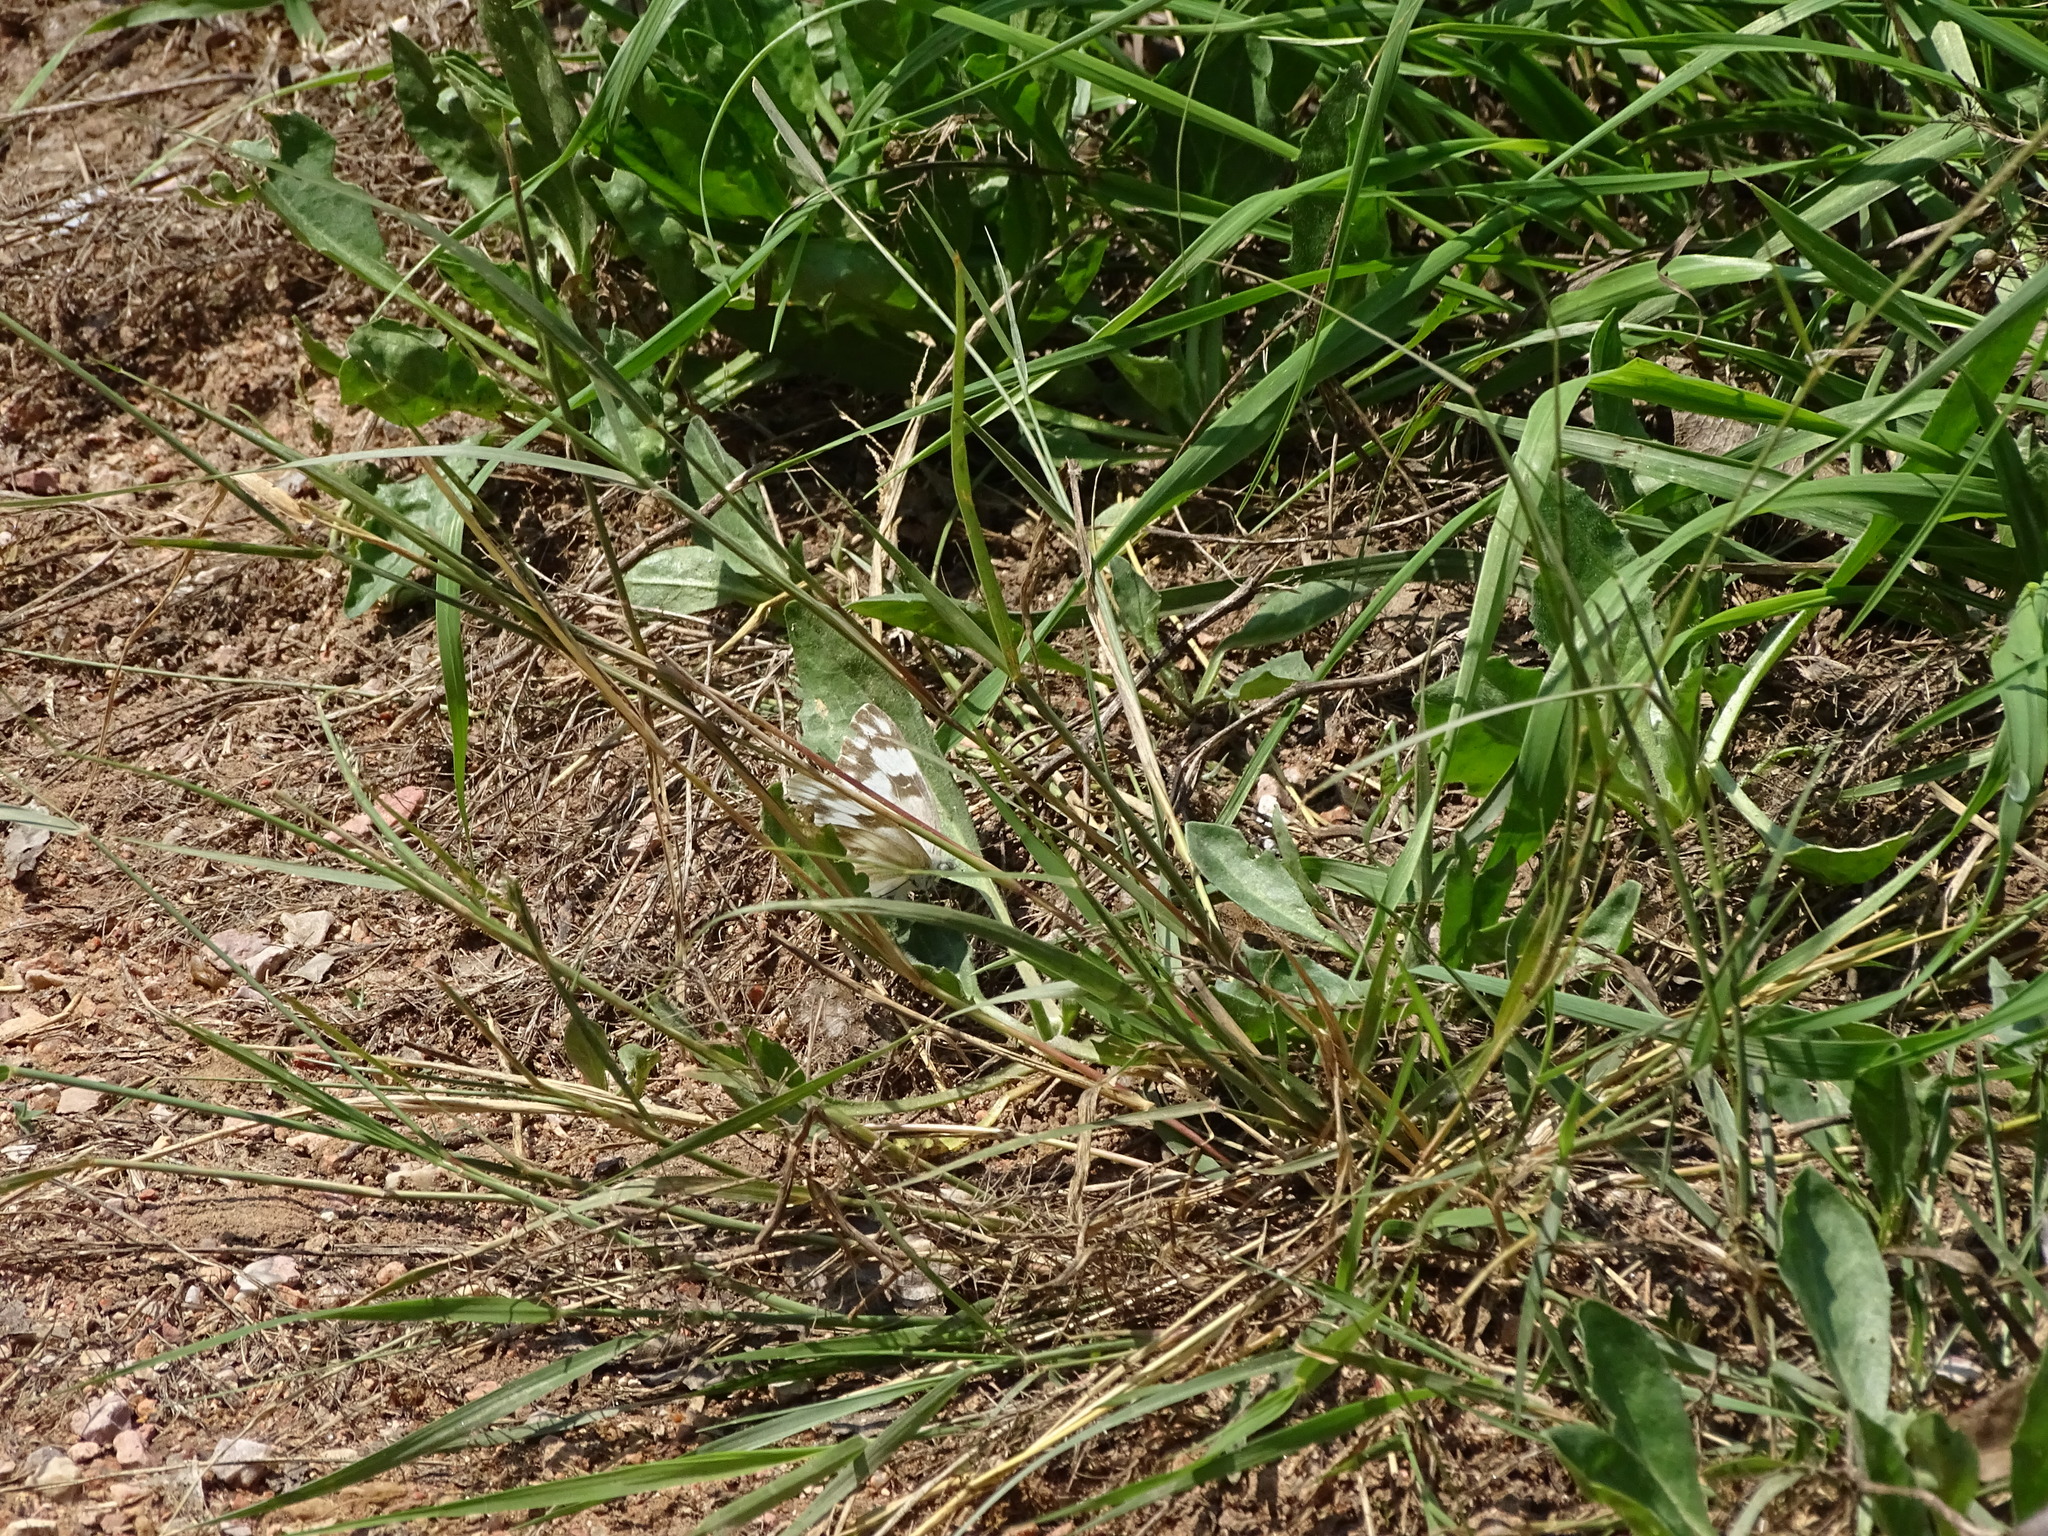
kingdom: Animalia
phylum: Arthropoda
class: Insecta
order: Lepidoptera
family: Pieridae
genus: Pontia
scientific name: Pontia protodice
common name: Checkered white
